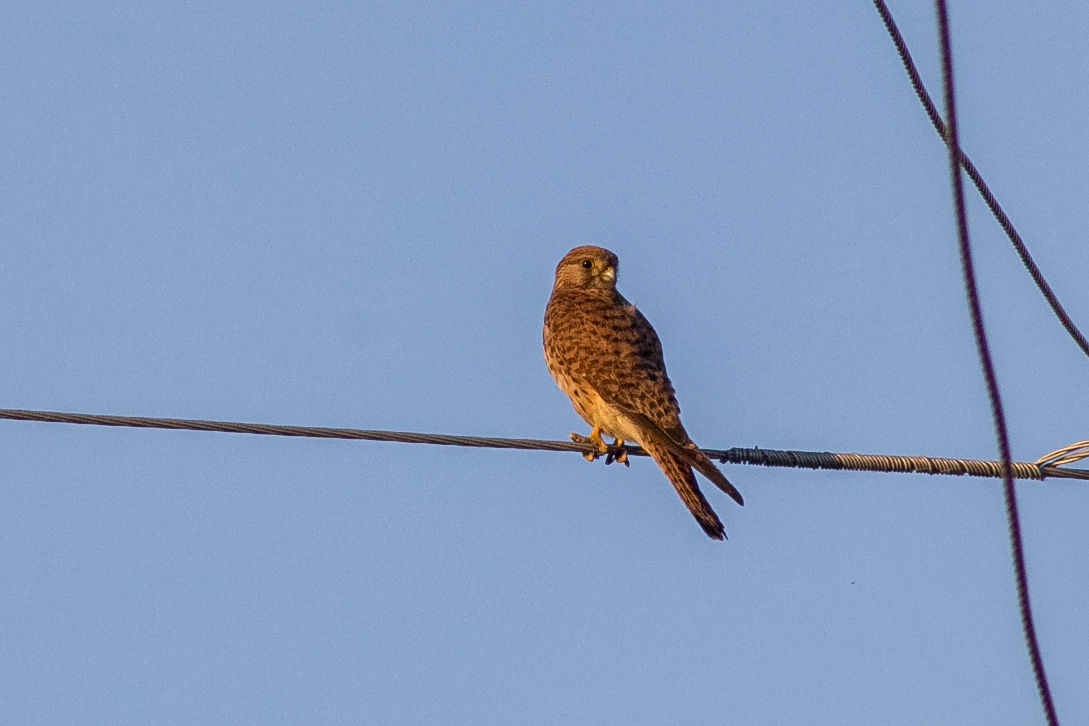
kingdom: Animalia
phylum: Chordata
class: Aves
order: Falconiformes
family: Falconidae
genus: Falco
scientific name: Falco tinnunculus
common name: Common kestrel
